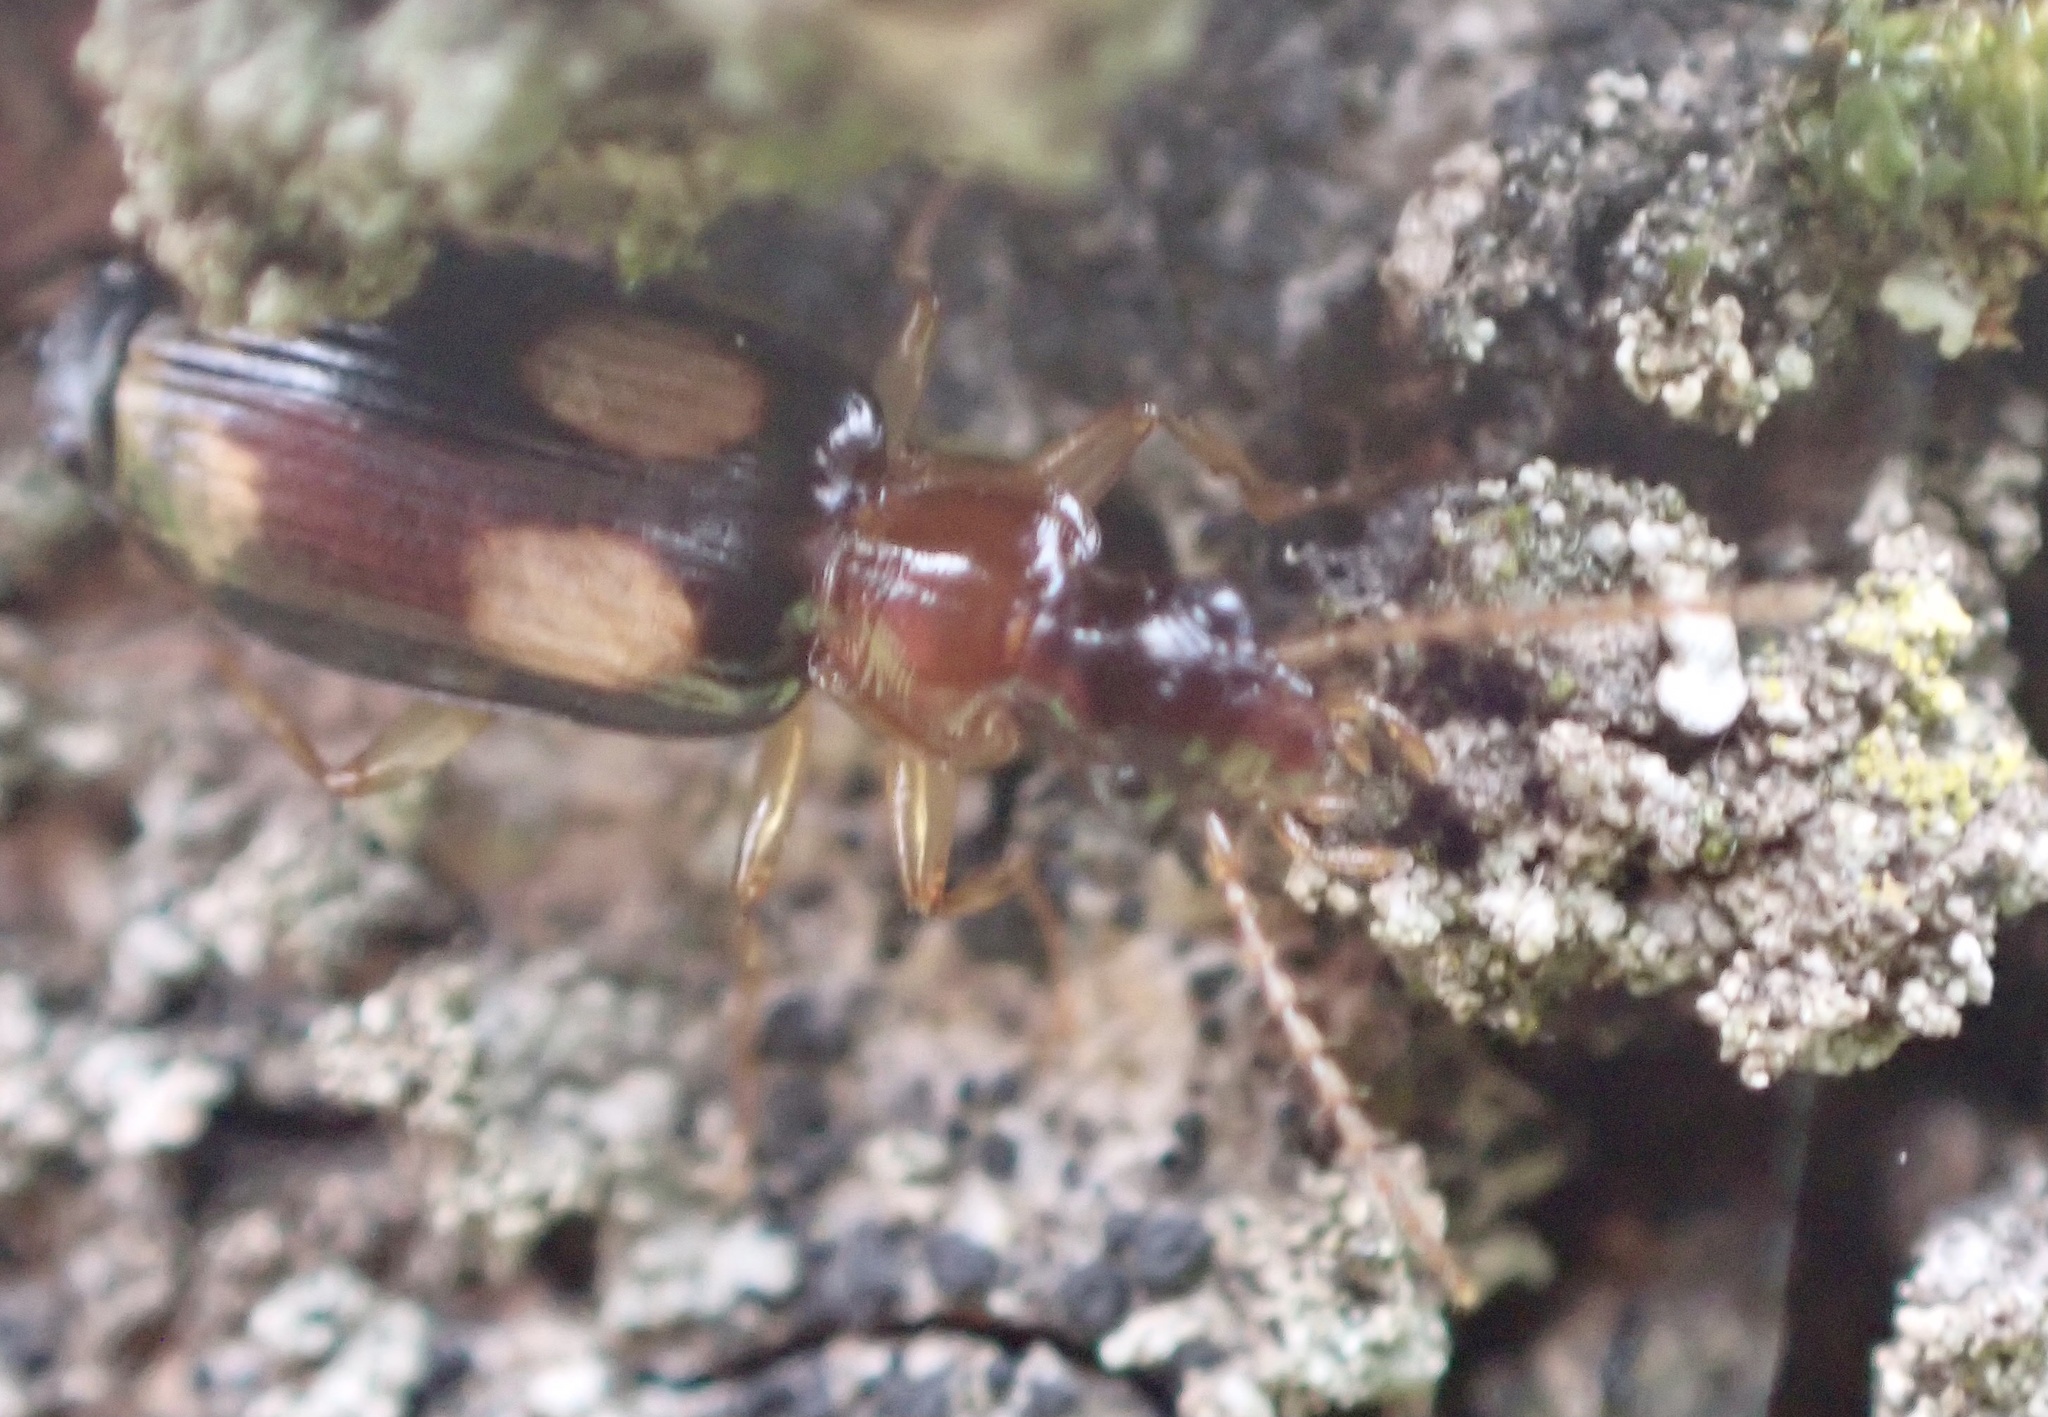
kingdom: Animalia
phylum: Arthropoda
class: Insecta
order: Coleoptera
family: Carabidae
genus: Dromius
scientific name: Dromius quadrimaculatus
